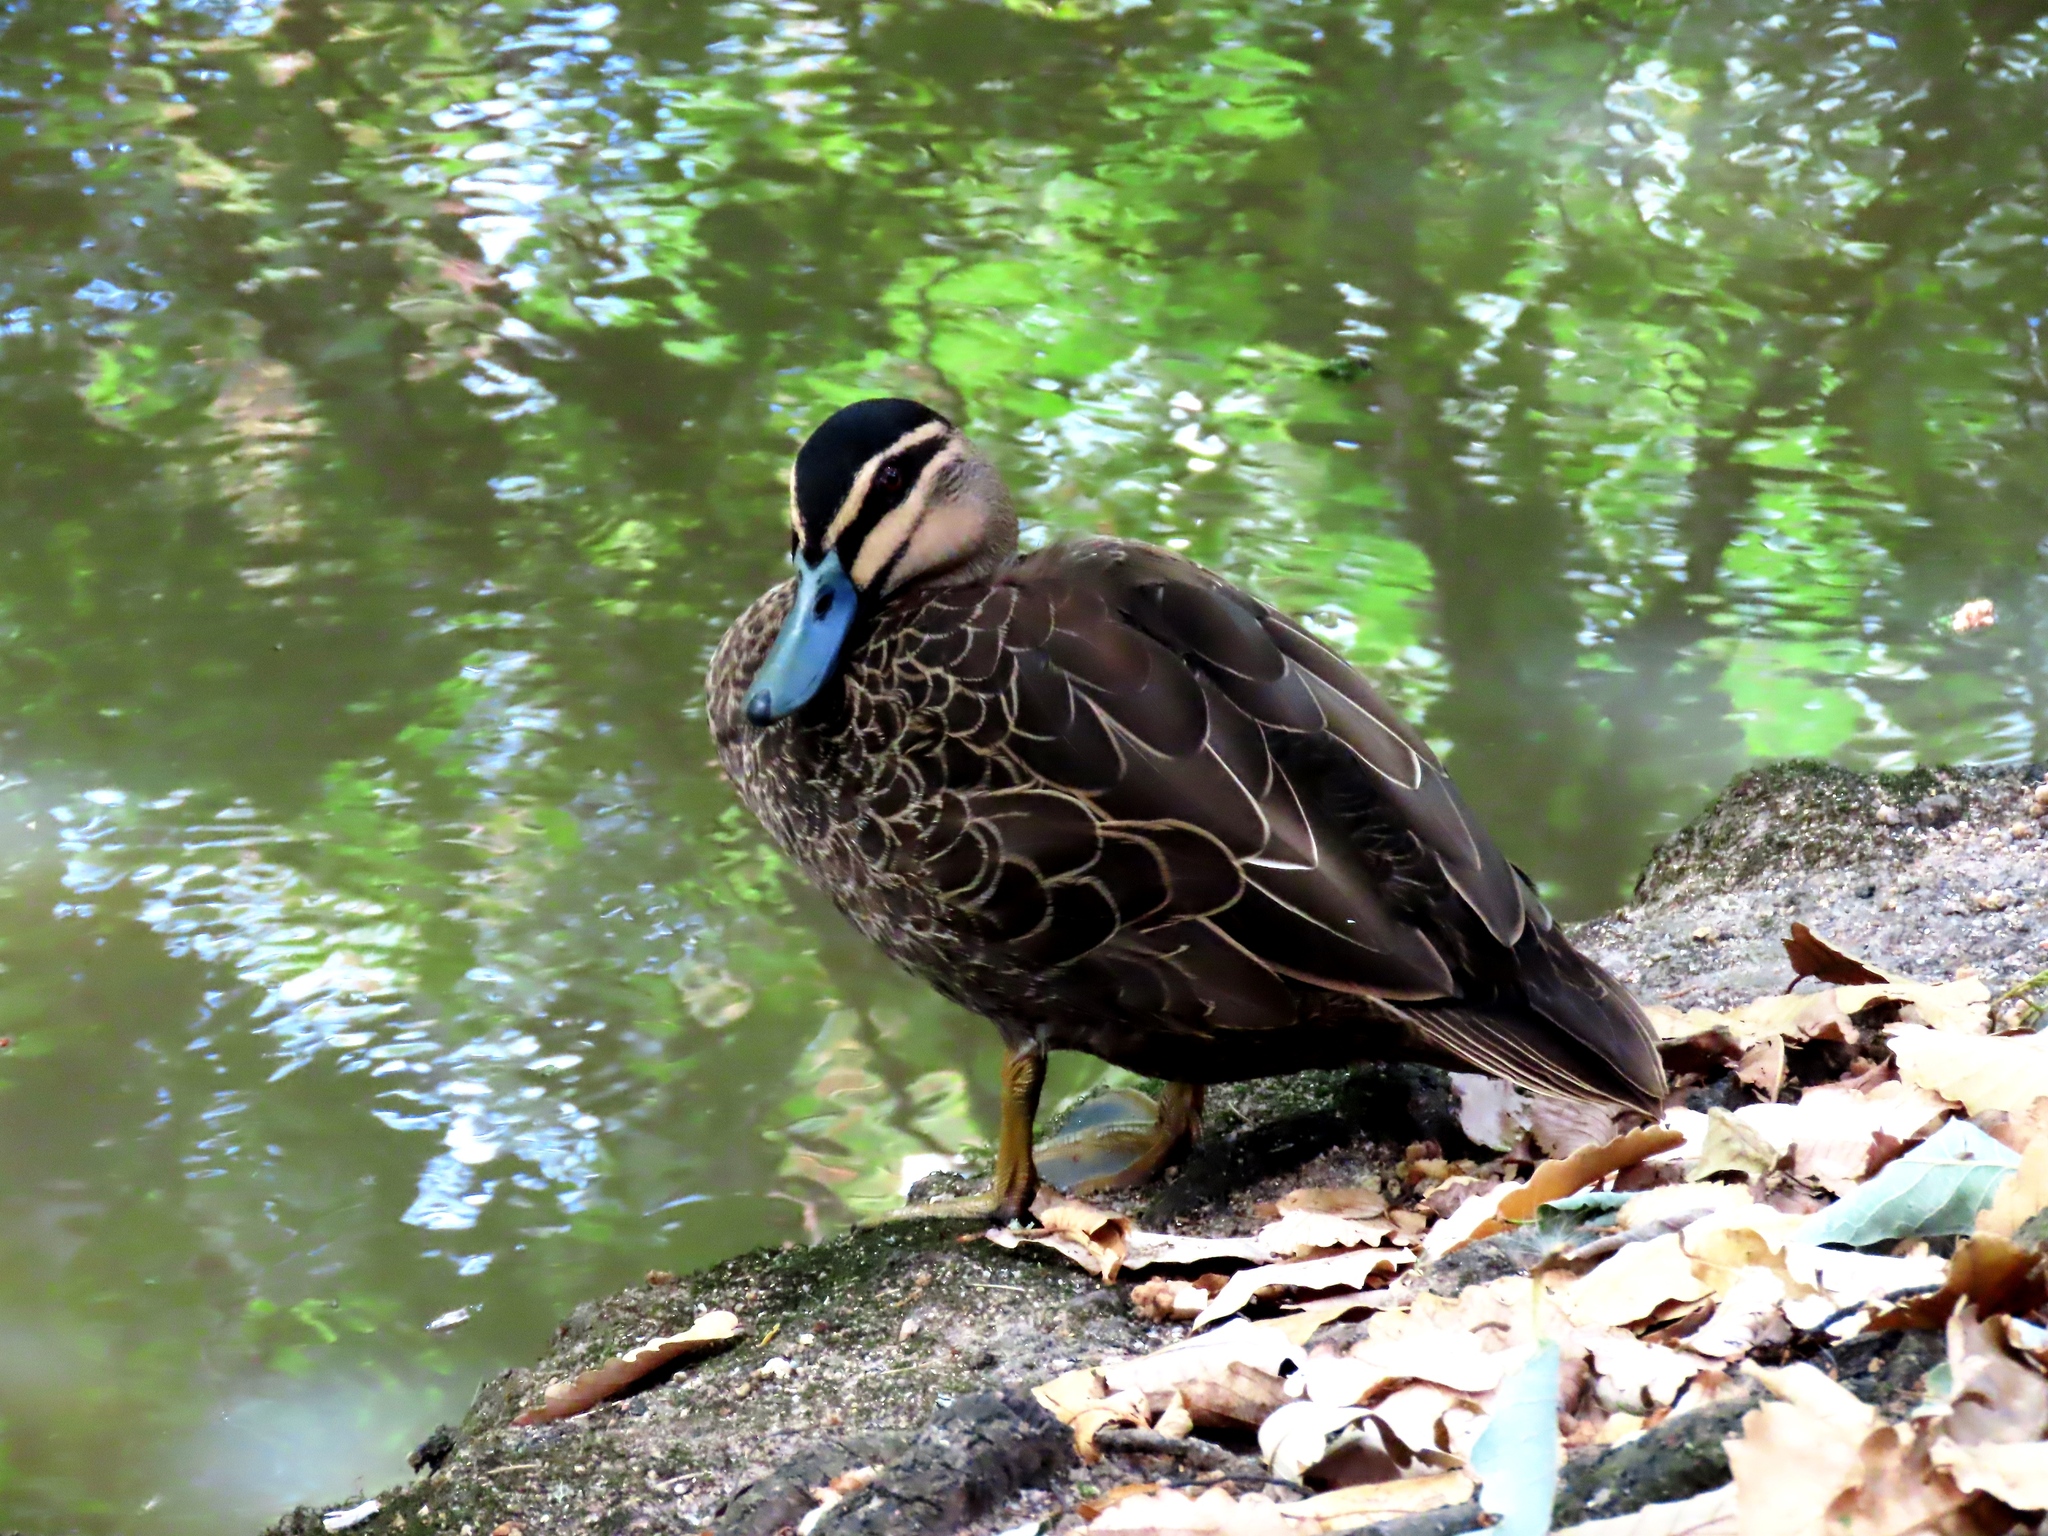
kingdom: Animalia
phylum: Chordata
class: Aves
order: Anseriformes
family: Anatidae
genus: Anas
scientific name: Anas superciliosa
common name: Pacific black duck
